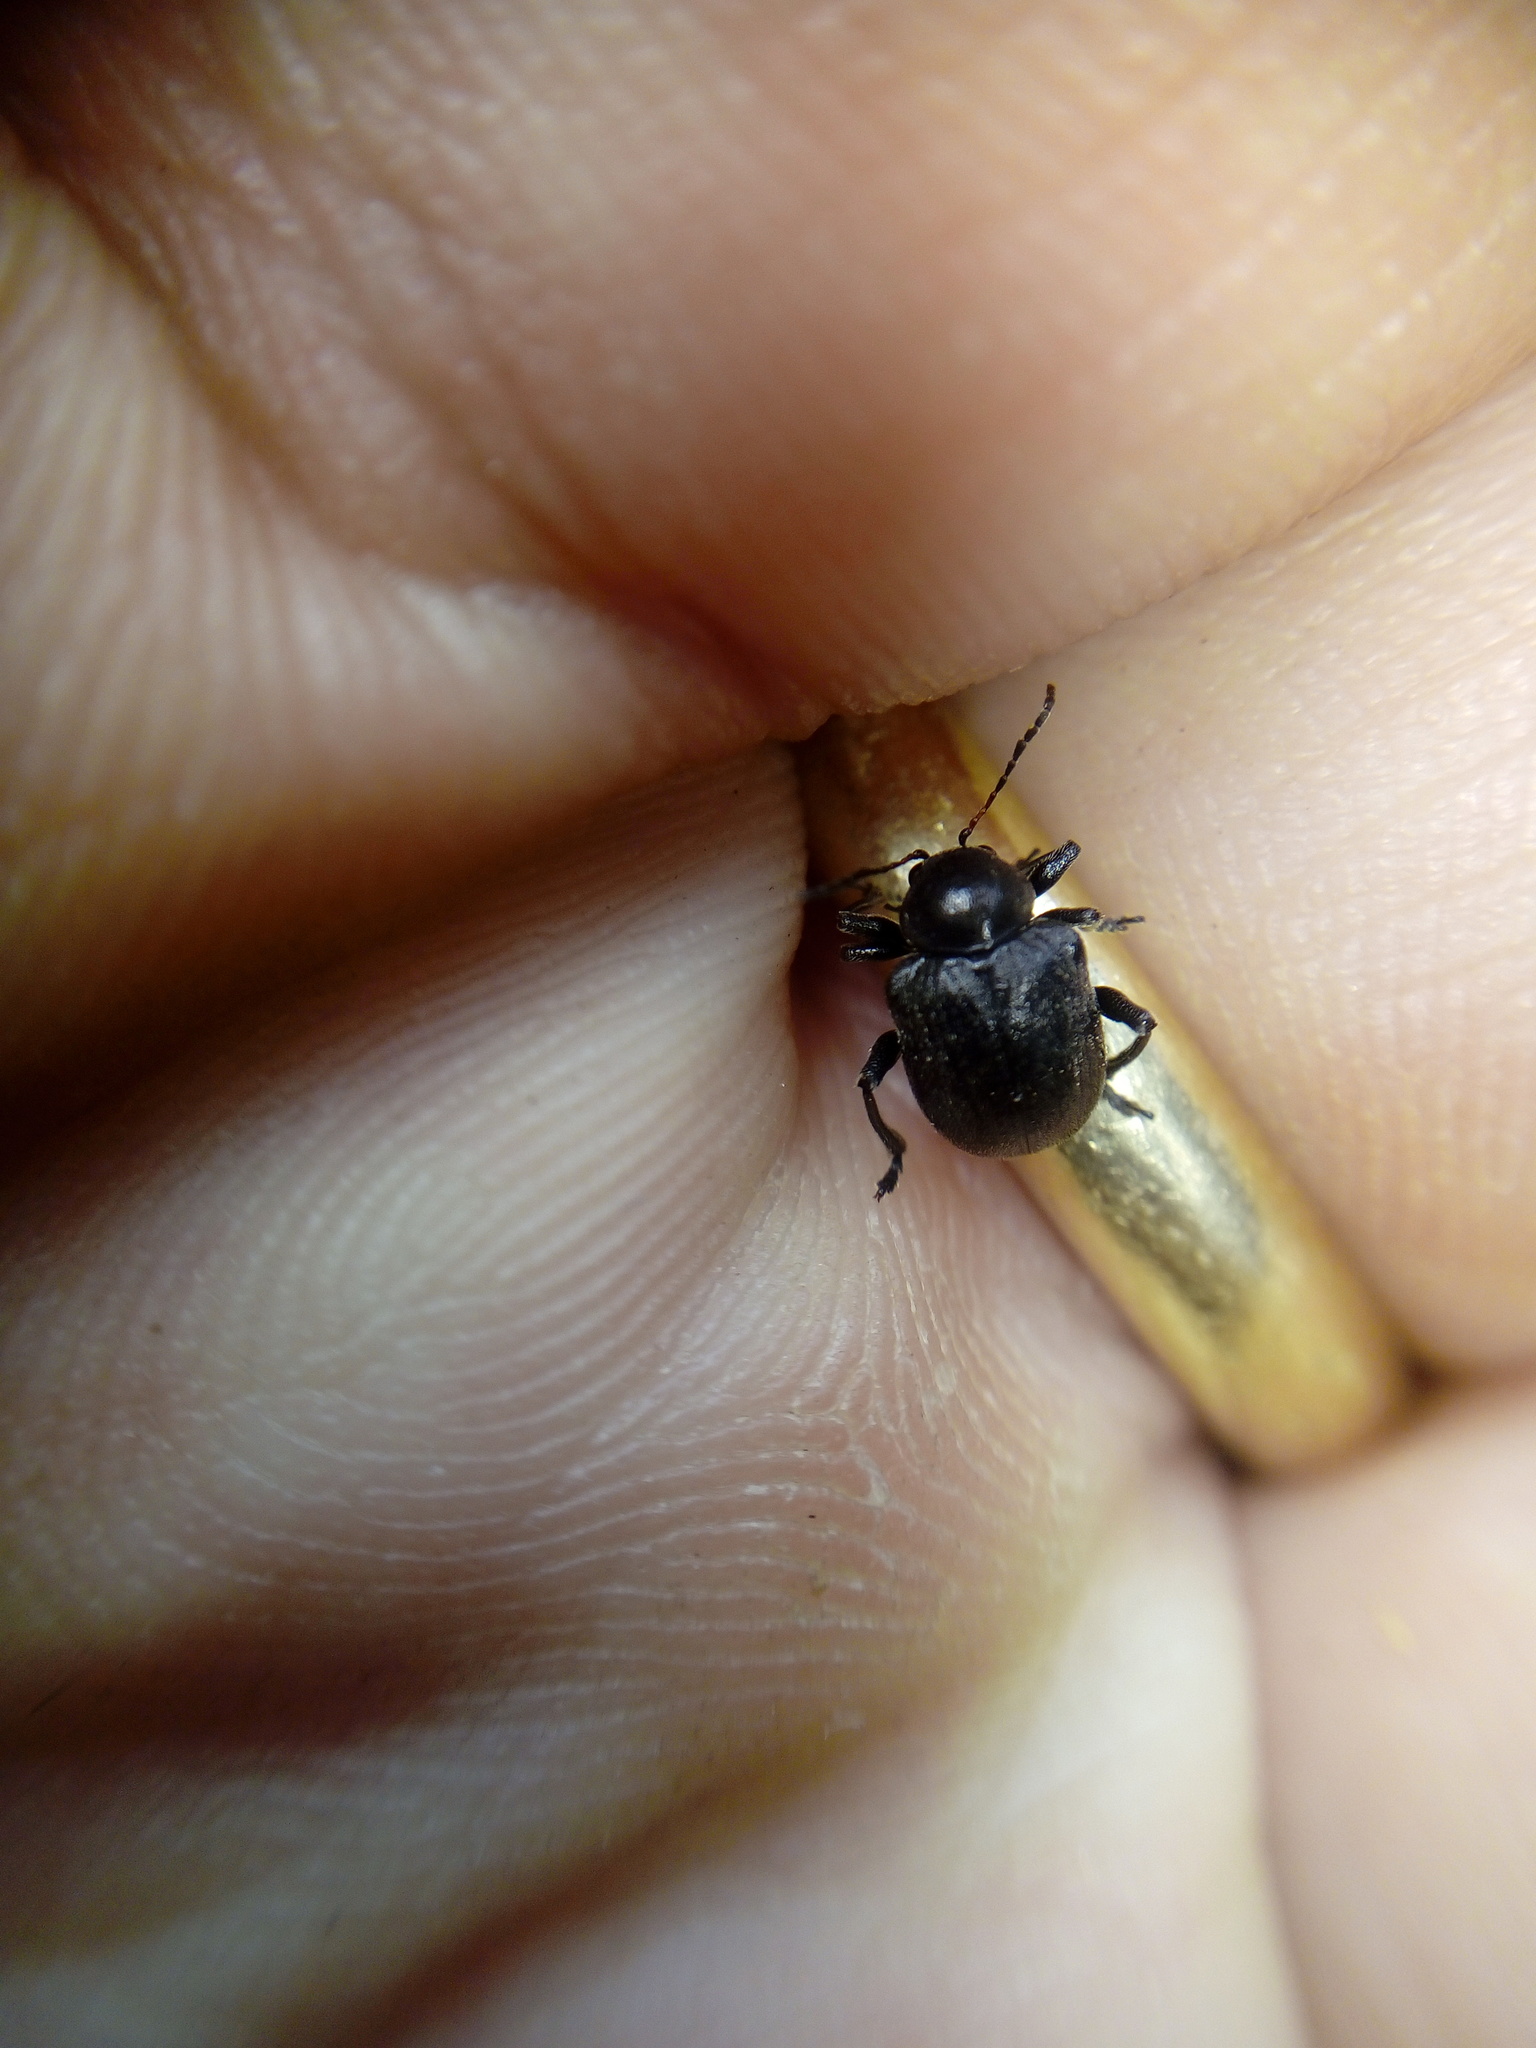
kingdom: Animalia
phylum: Arthropoda
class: Insecta
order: Coleoptera
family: Chrysomelidae
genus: Bromius
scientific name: Bromius obscurus
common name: Western grape rootworm
